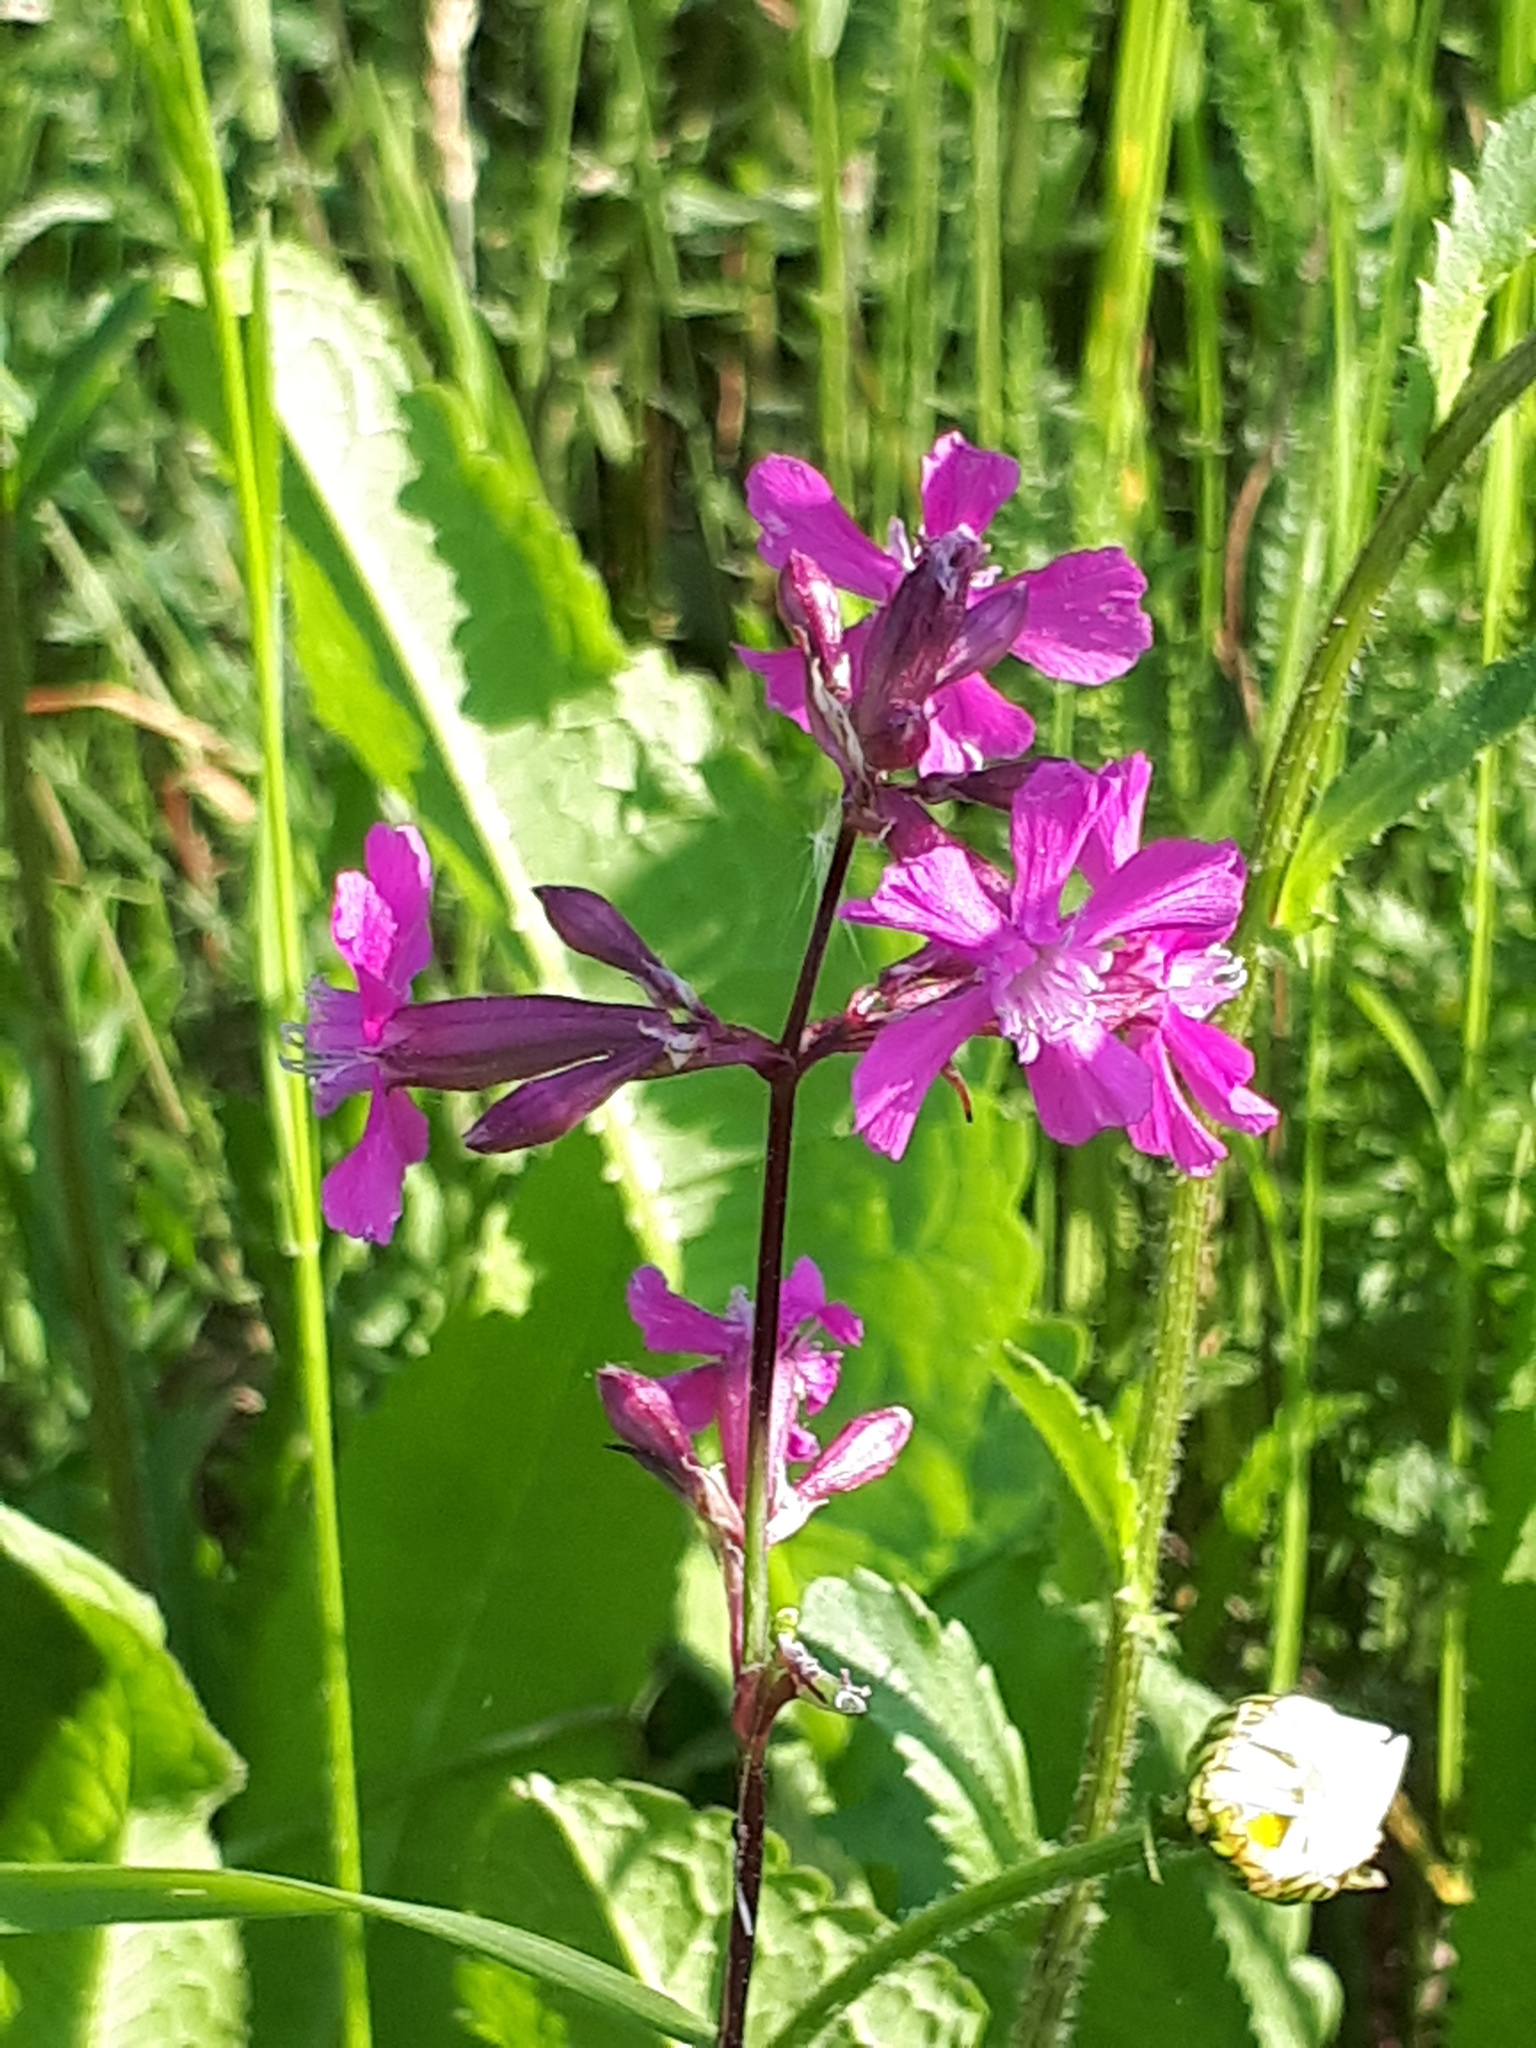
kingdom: Plantae
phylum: Tracheophyta
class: Magnoliopsida
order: Caryophyllales
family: Caryophyllaceae
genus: Viscaria
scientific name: Viscaria vulgaris
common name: Clammy campion
